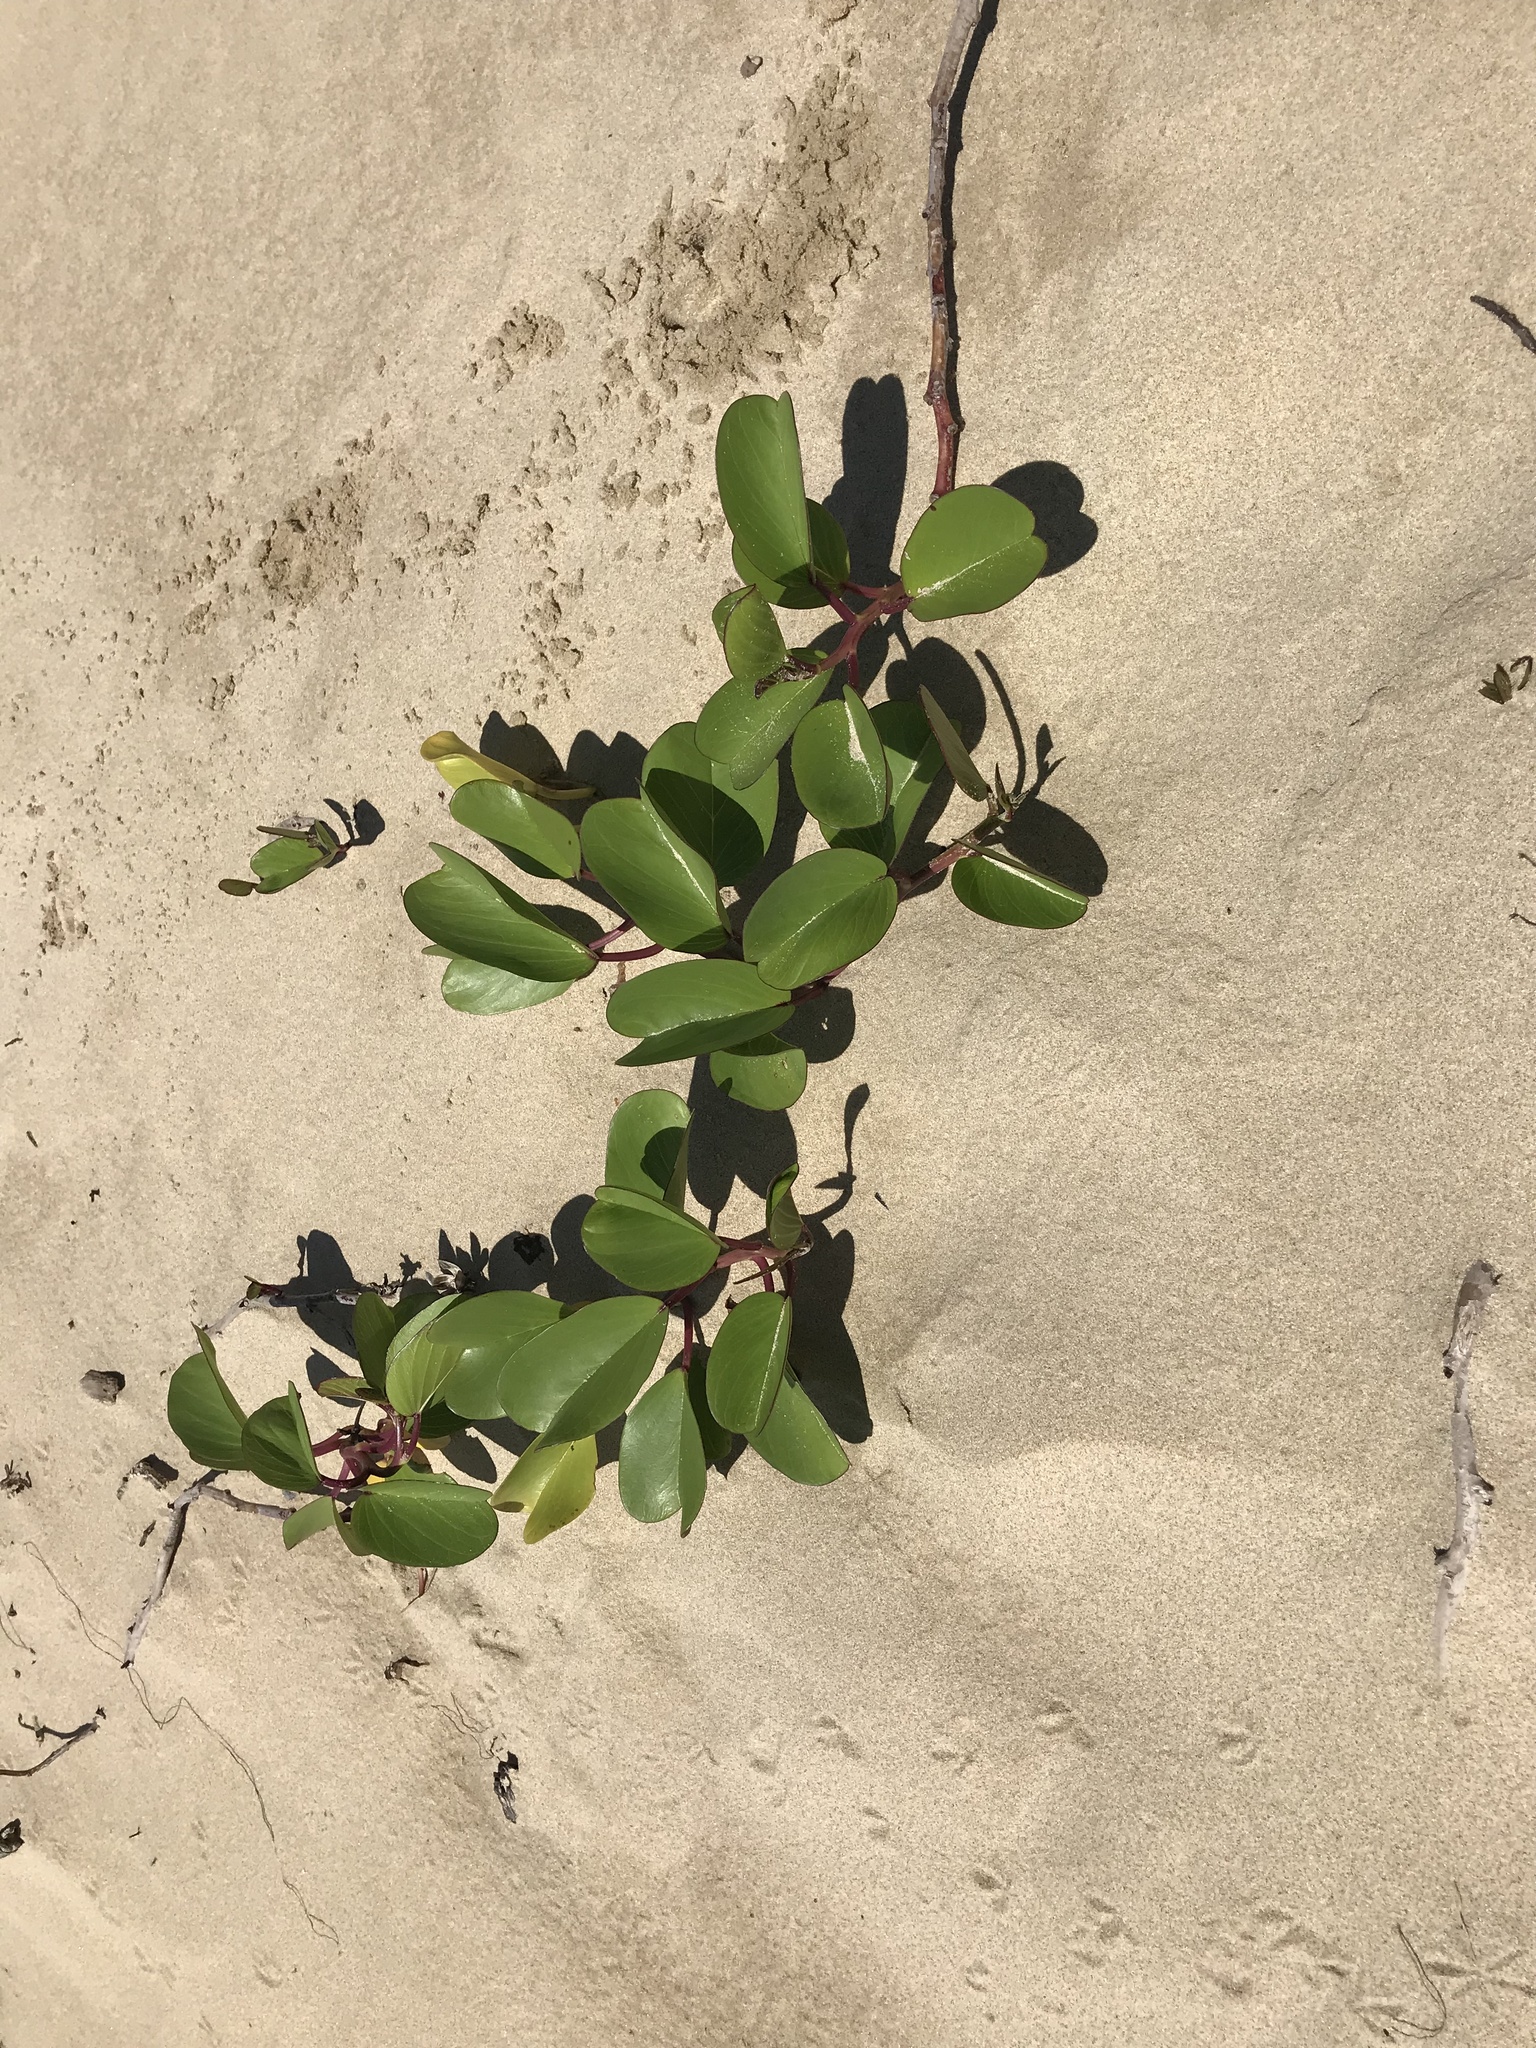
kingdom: Plantae
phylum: Tracheophyta
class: Magnoliopsida
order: Solanales
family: Convolvulaceae
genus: Ipomoea
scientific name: Ipomoea pes-caprae
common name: Beach morning glory
